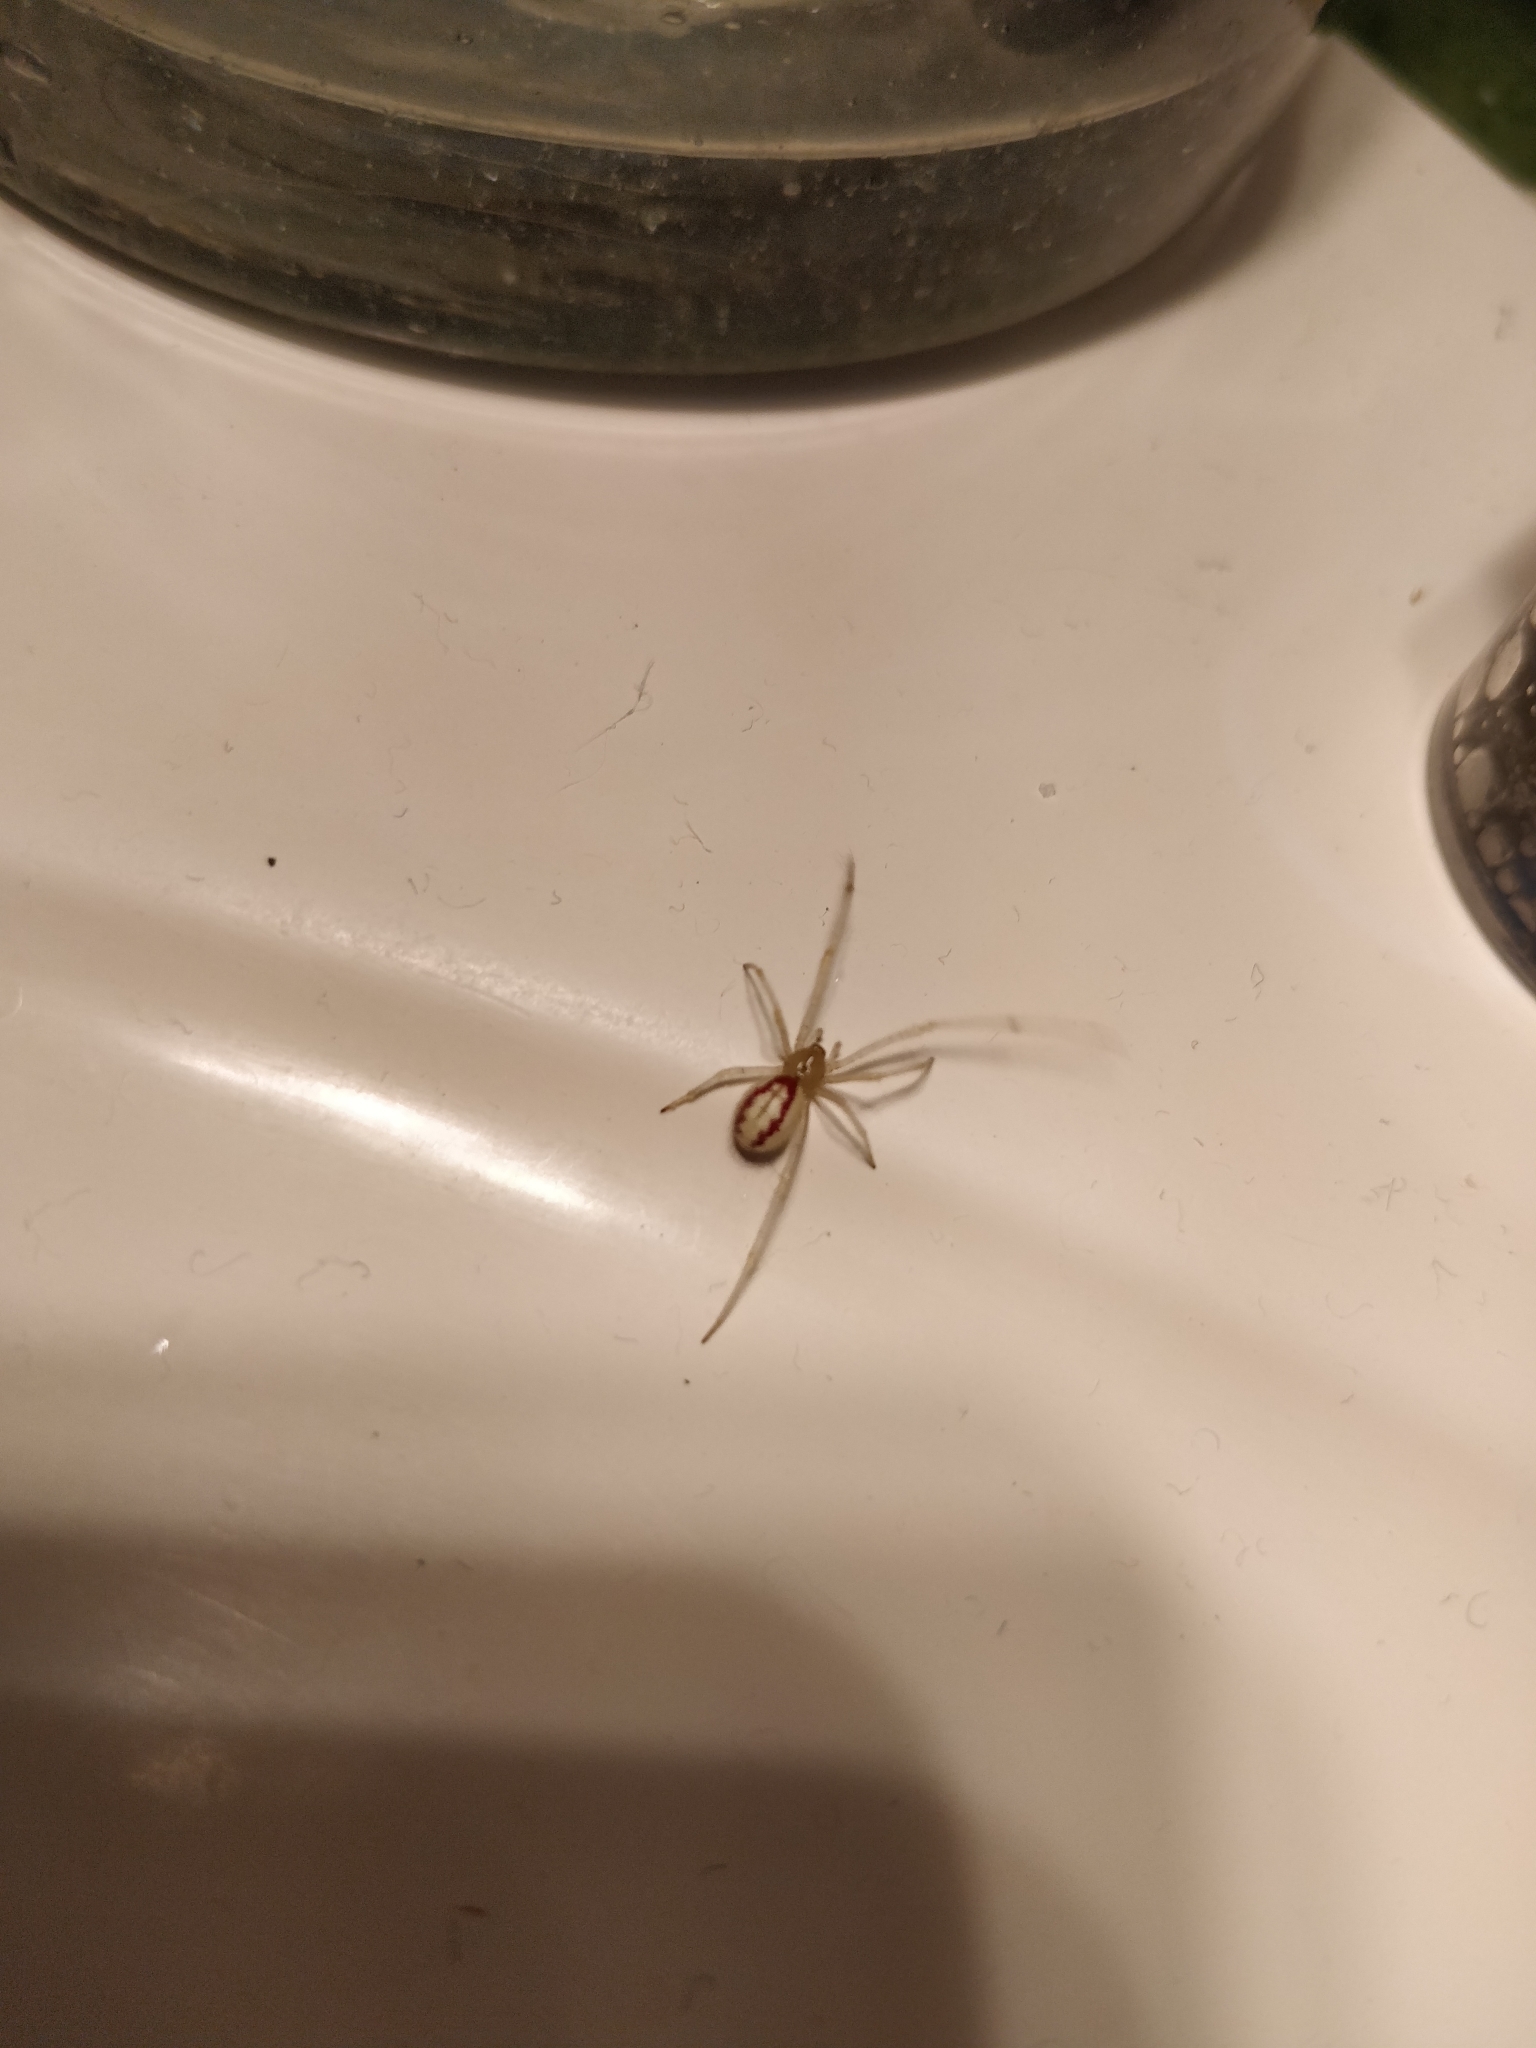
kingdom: Animalia
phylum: Arthropoda
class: Arachnida
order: Araneae
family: Theridiidae
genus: Enoplognatha
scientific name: Enoplognatha ovata
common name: Common candy-striped spider
